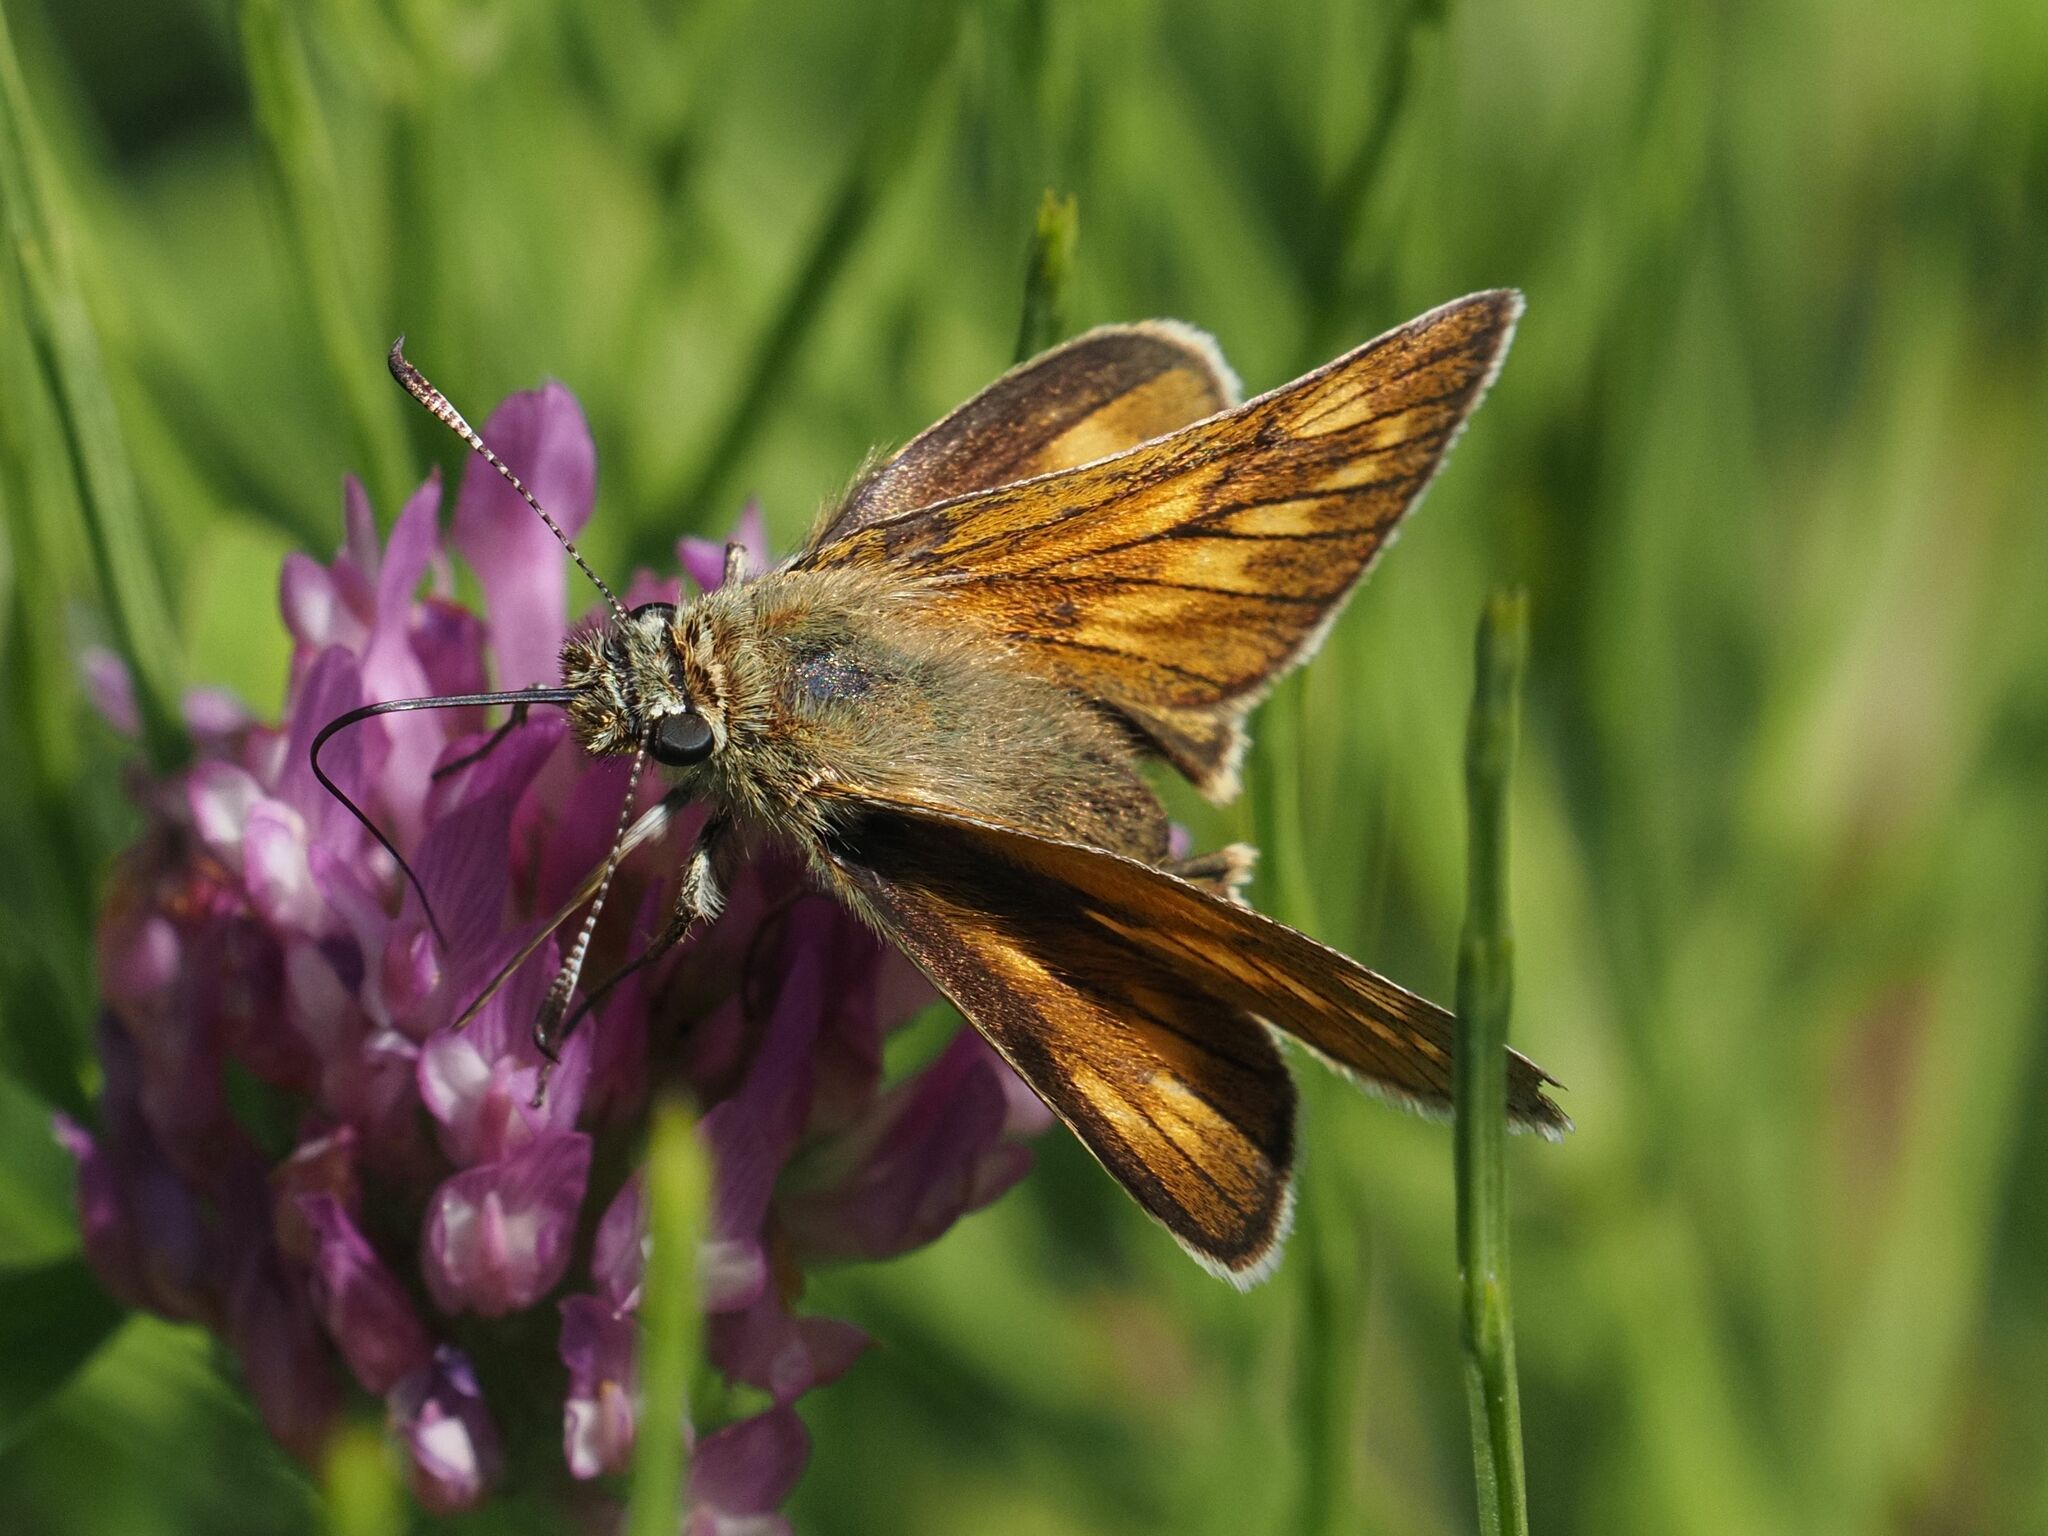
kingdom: Animalia
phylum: Arthropoda
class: Insecta
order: Lepidoptera
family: Hesperiidae
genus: Ochlodes
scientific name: Ochlodes venata
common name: Large skipper
